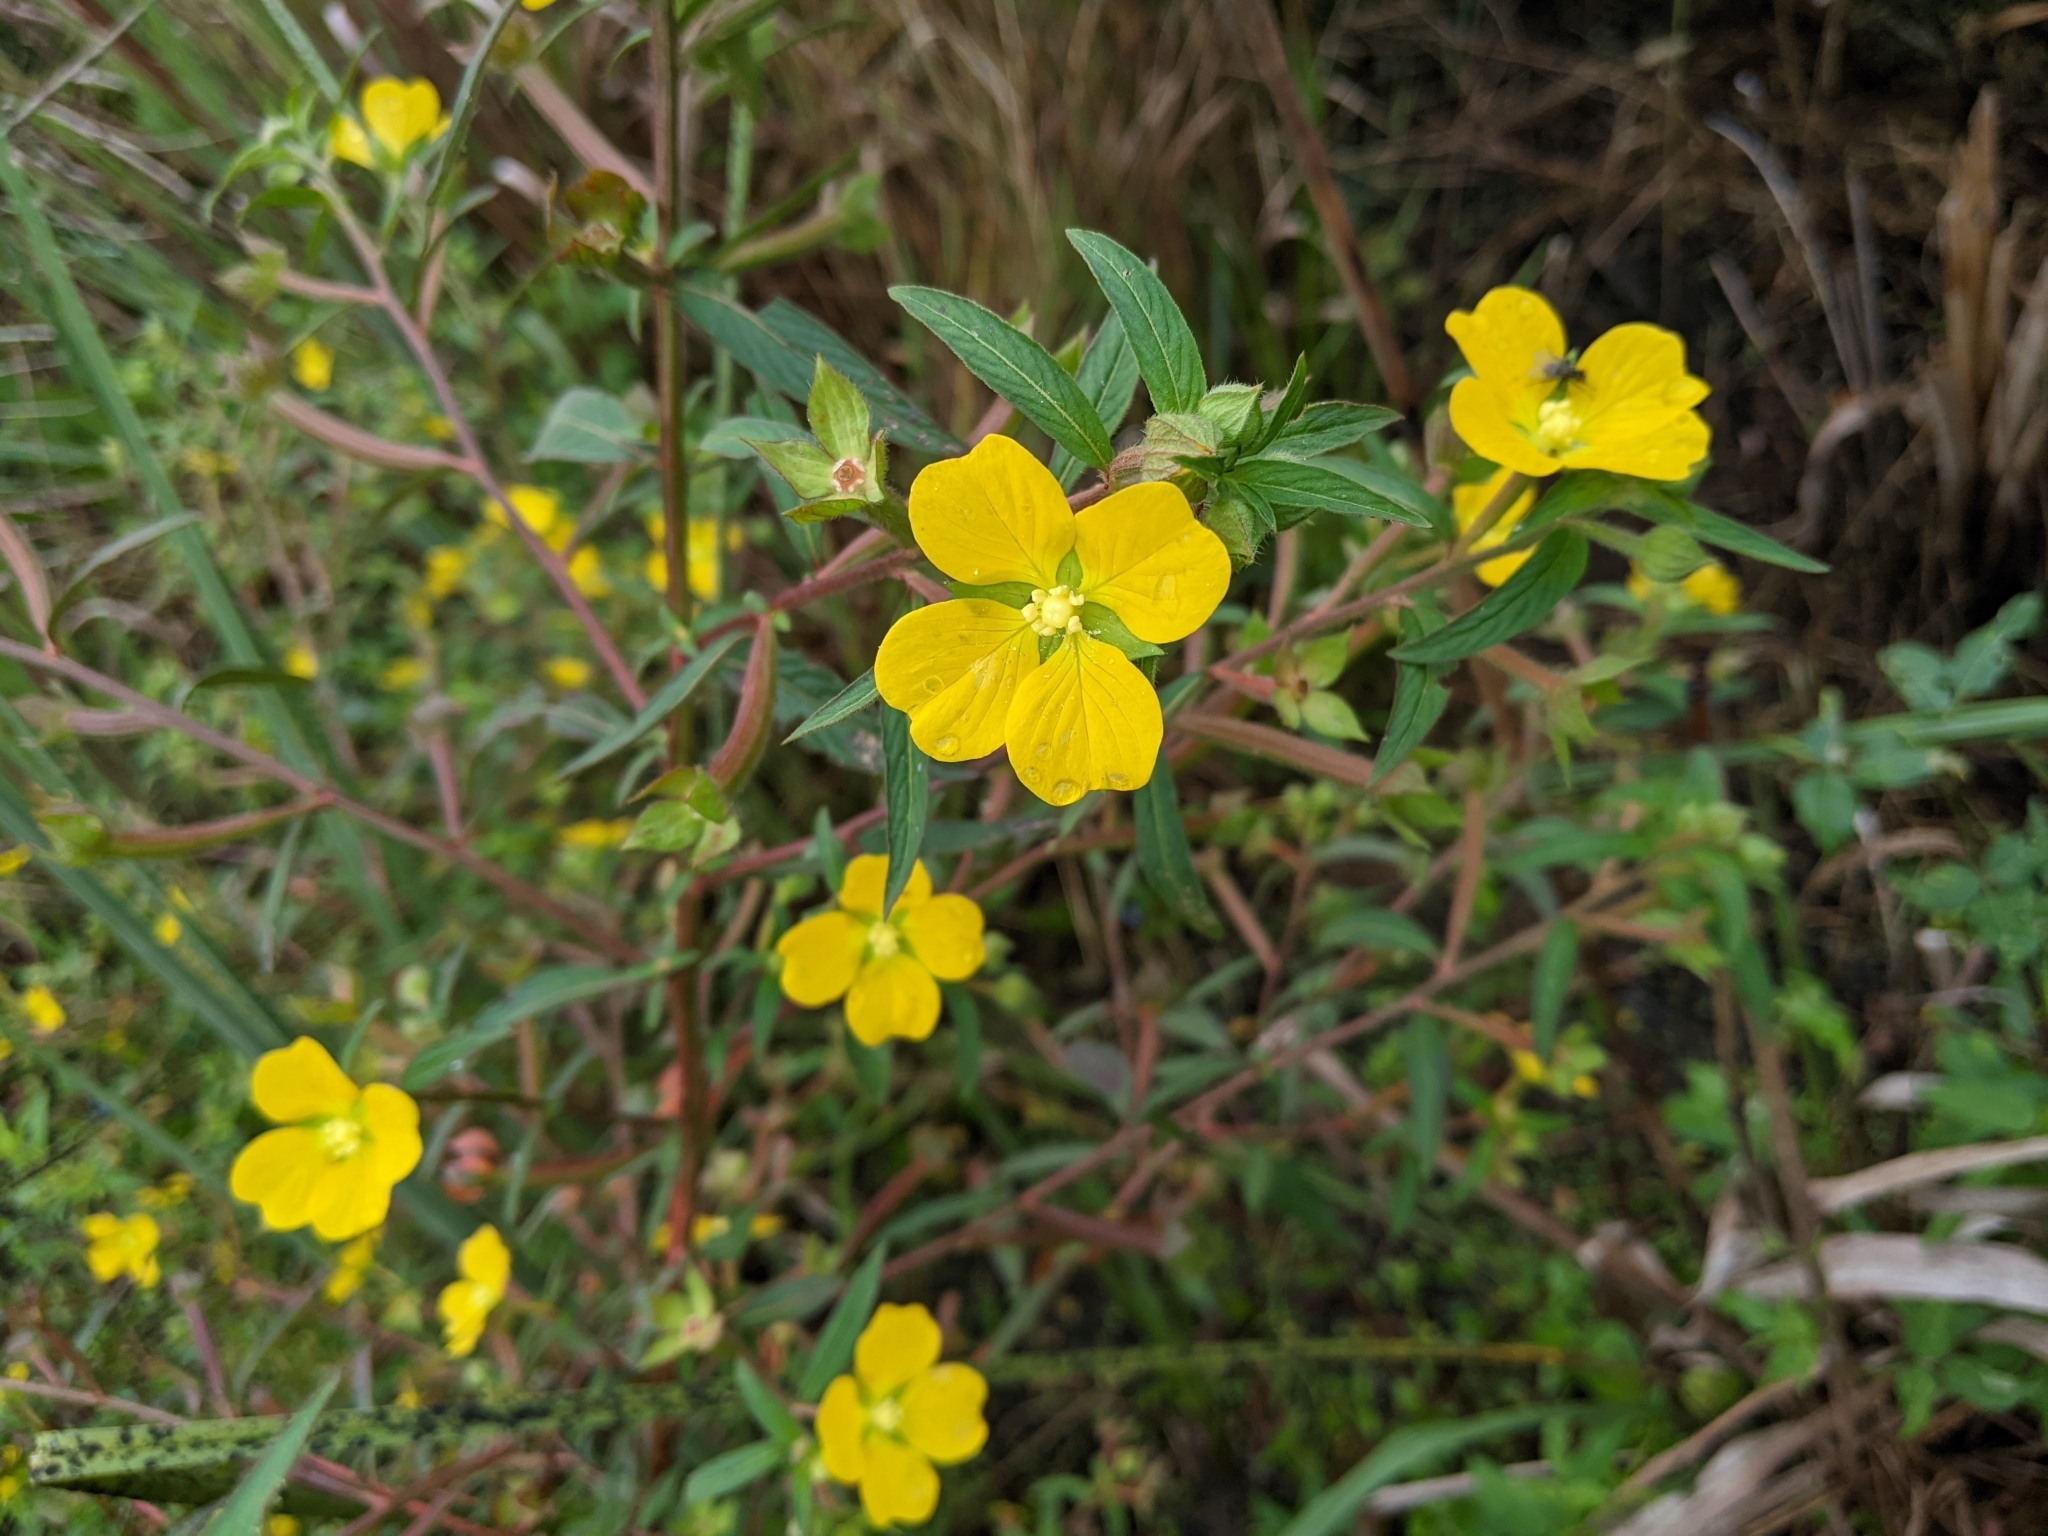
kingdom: Plantae
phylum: Tracheophyta
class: Magnoliopsida
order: Myrtales
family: Onagraceae
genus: Ludwigia
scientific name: Ludwigia octovalvis
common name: Water-primrose
